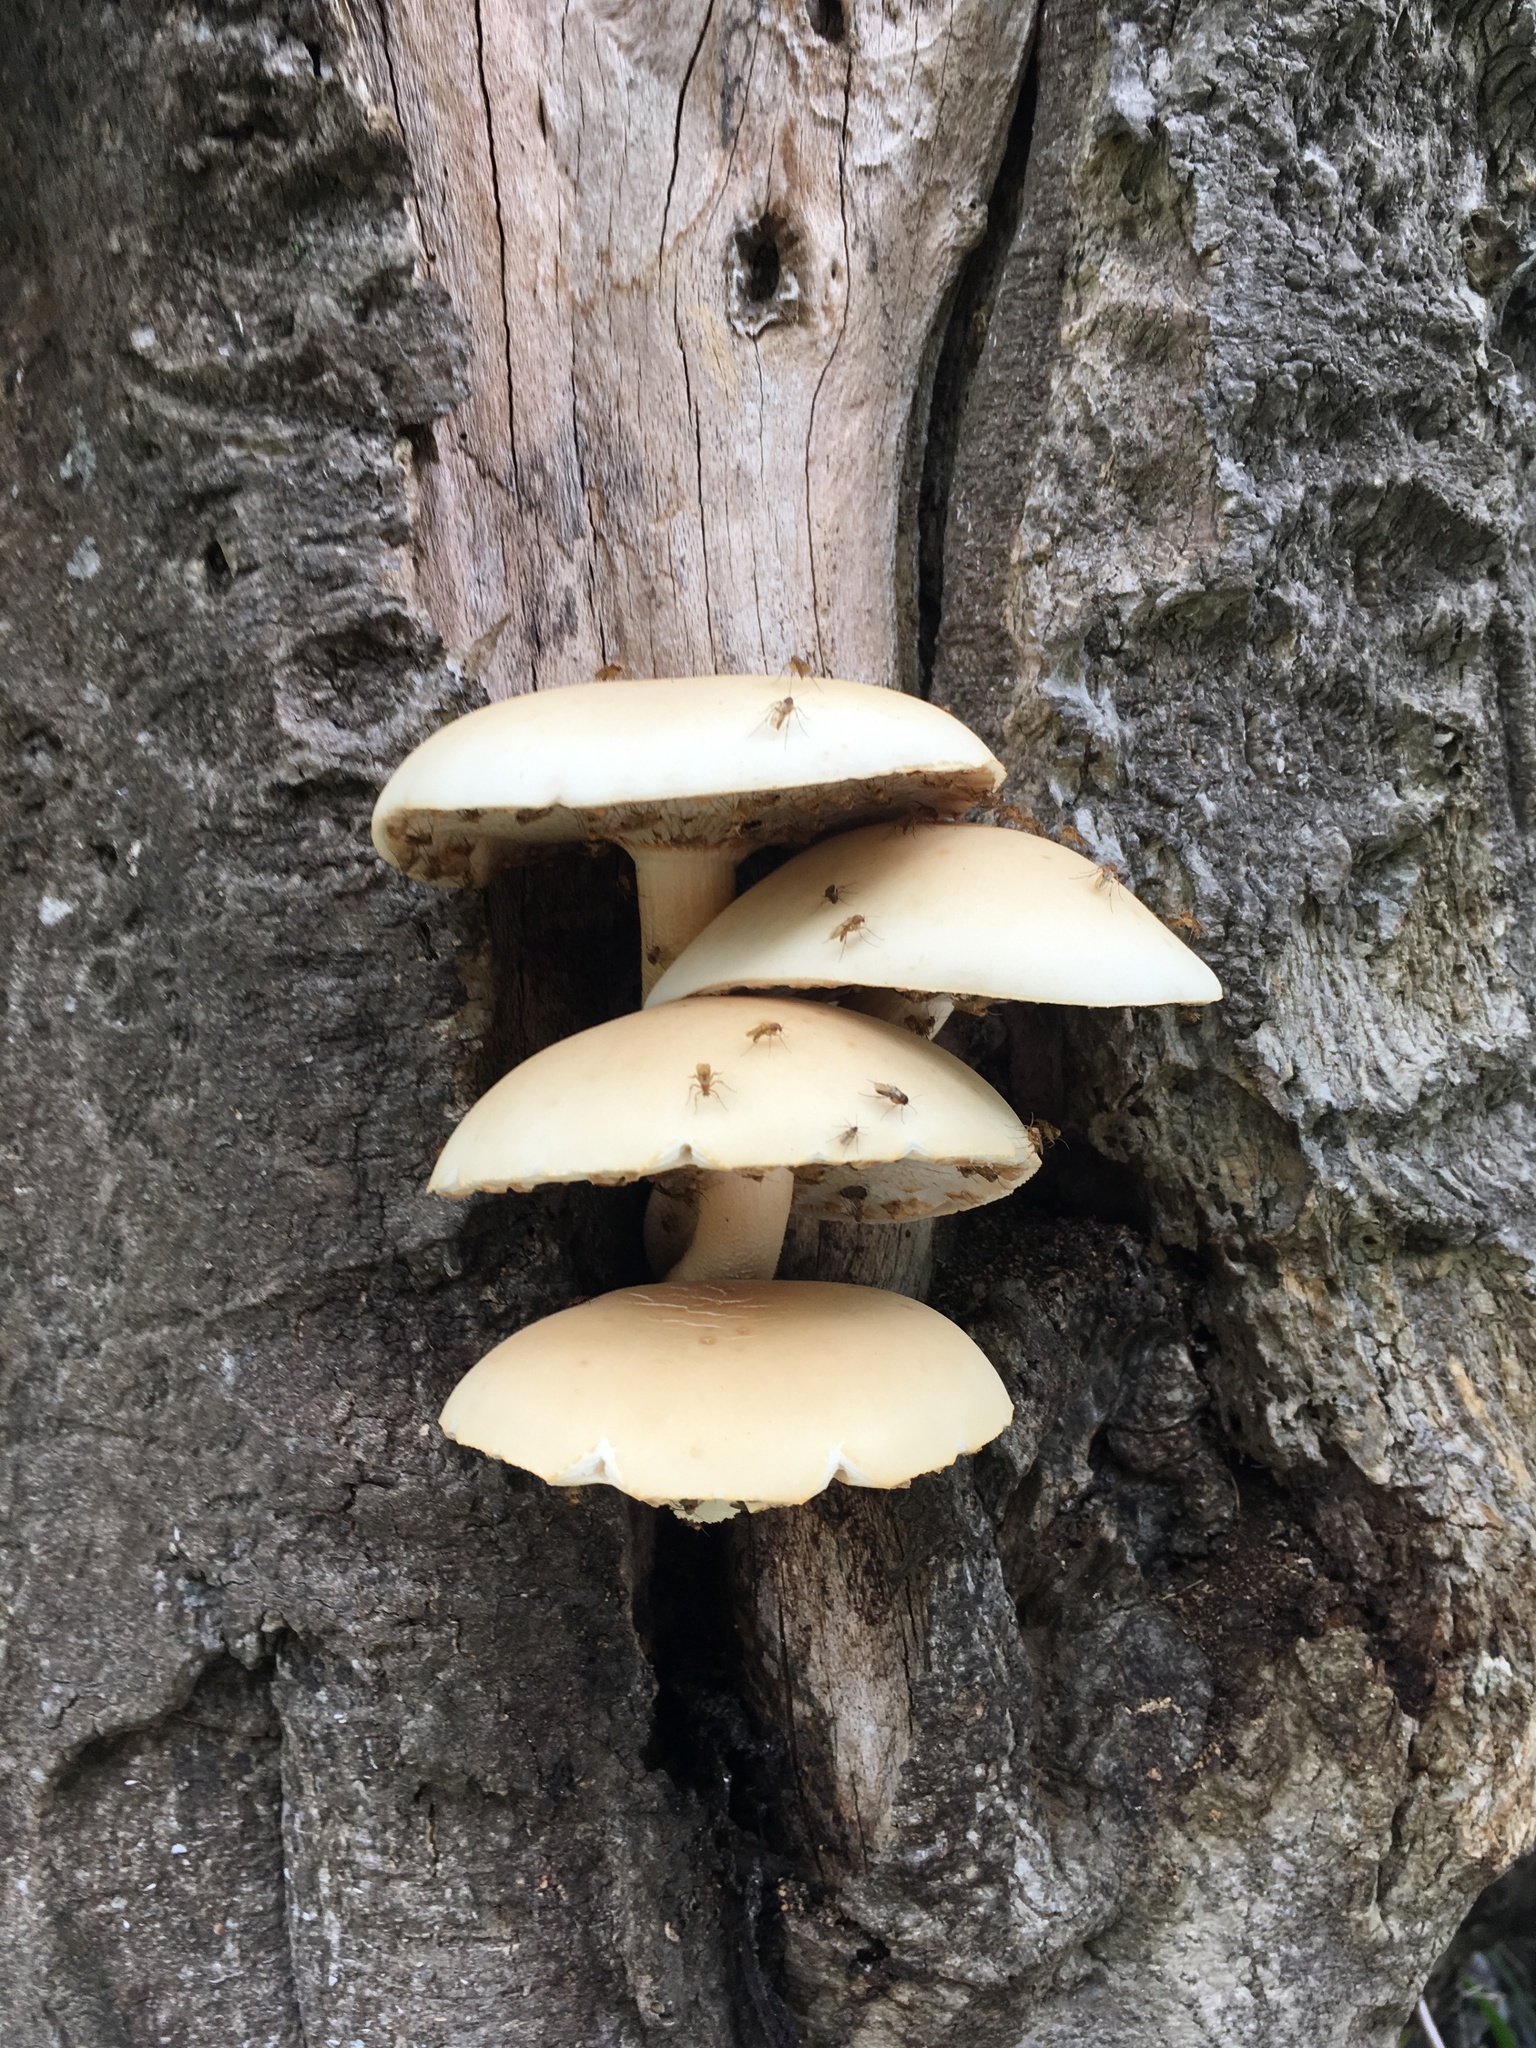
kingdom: Fungi
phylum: Basidiomycota
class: Agaricomycetes
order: Agaricales
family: Tubariaceae
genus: Cyclocybe
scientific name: Cyclocybe parasitica
